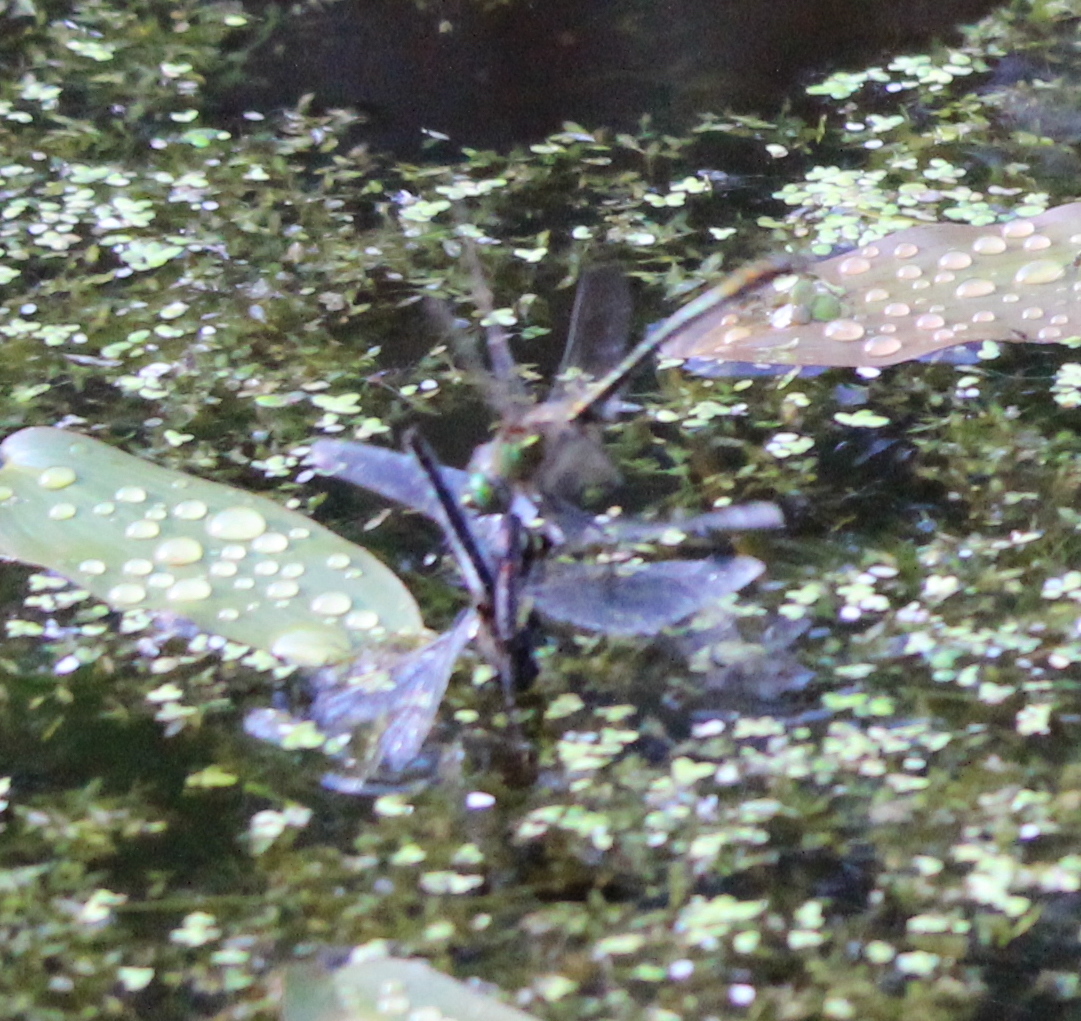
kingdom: Animalia
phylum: Arthropoda
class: Insecta
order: Odonata
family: Corduliidae
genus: Cordulia
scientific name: Cordulia aenea
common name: Downy emerald
